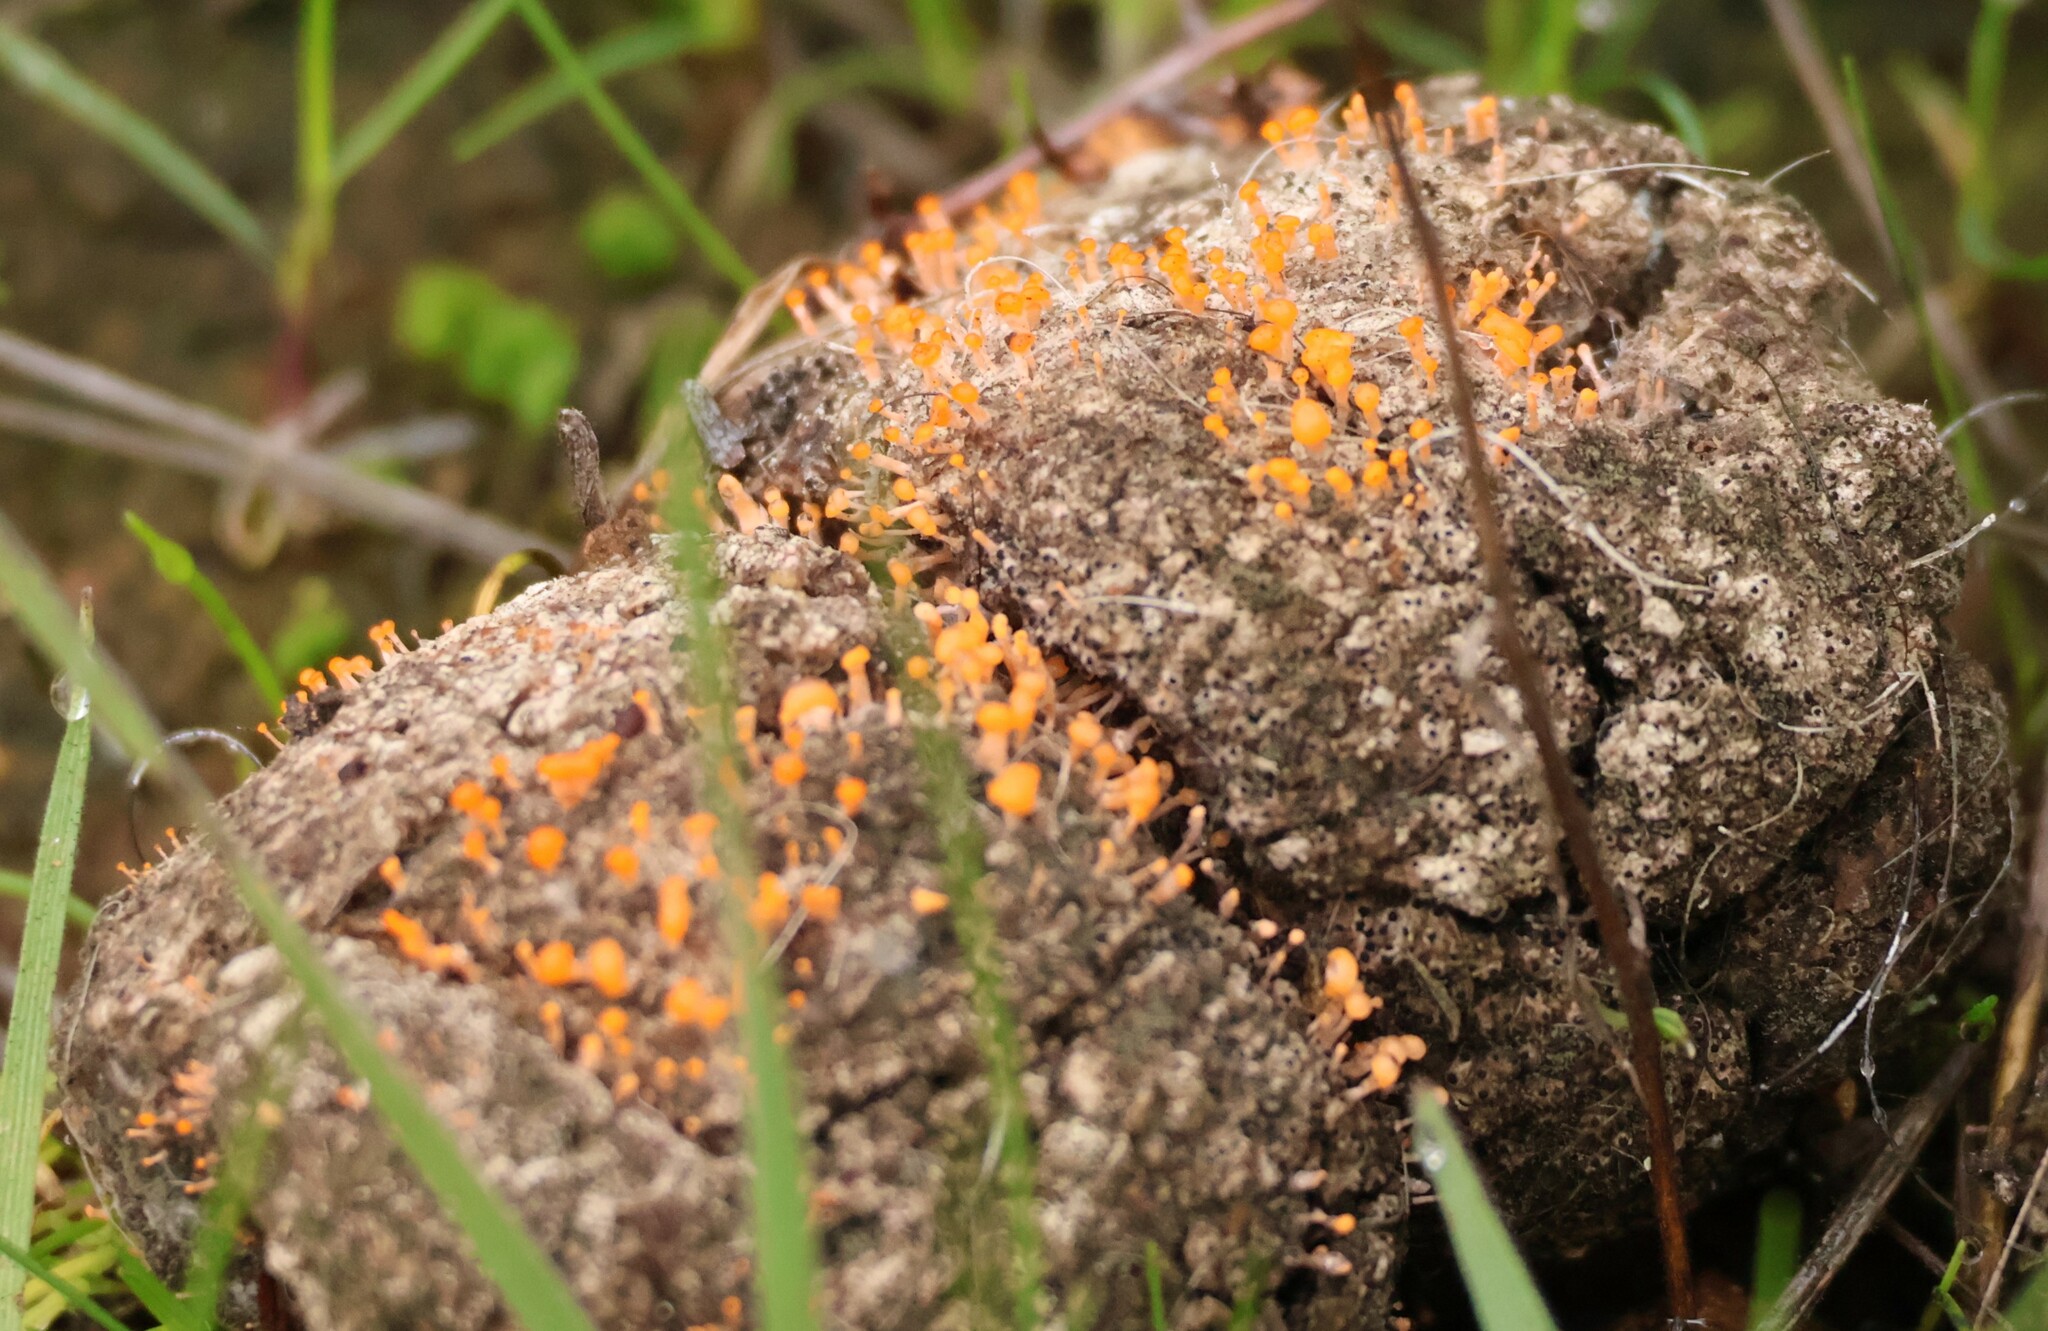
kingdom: Fungi
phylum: Ascomycota
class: Sordariomycetes
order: Hypocreales
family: Myrotheciomycetaceae
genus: Emericellopsis
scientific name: Emericellopsis
